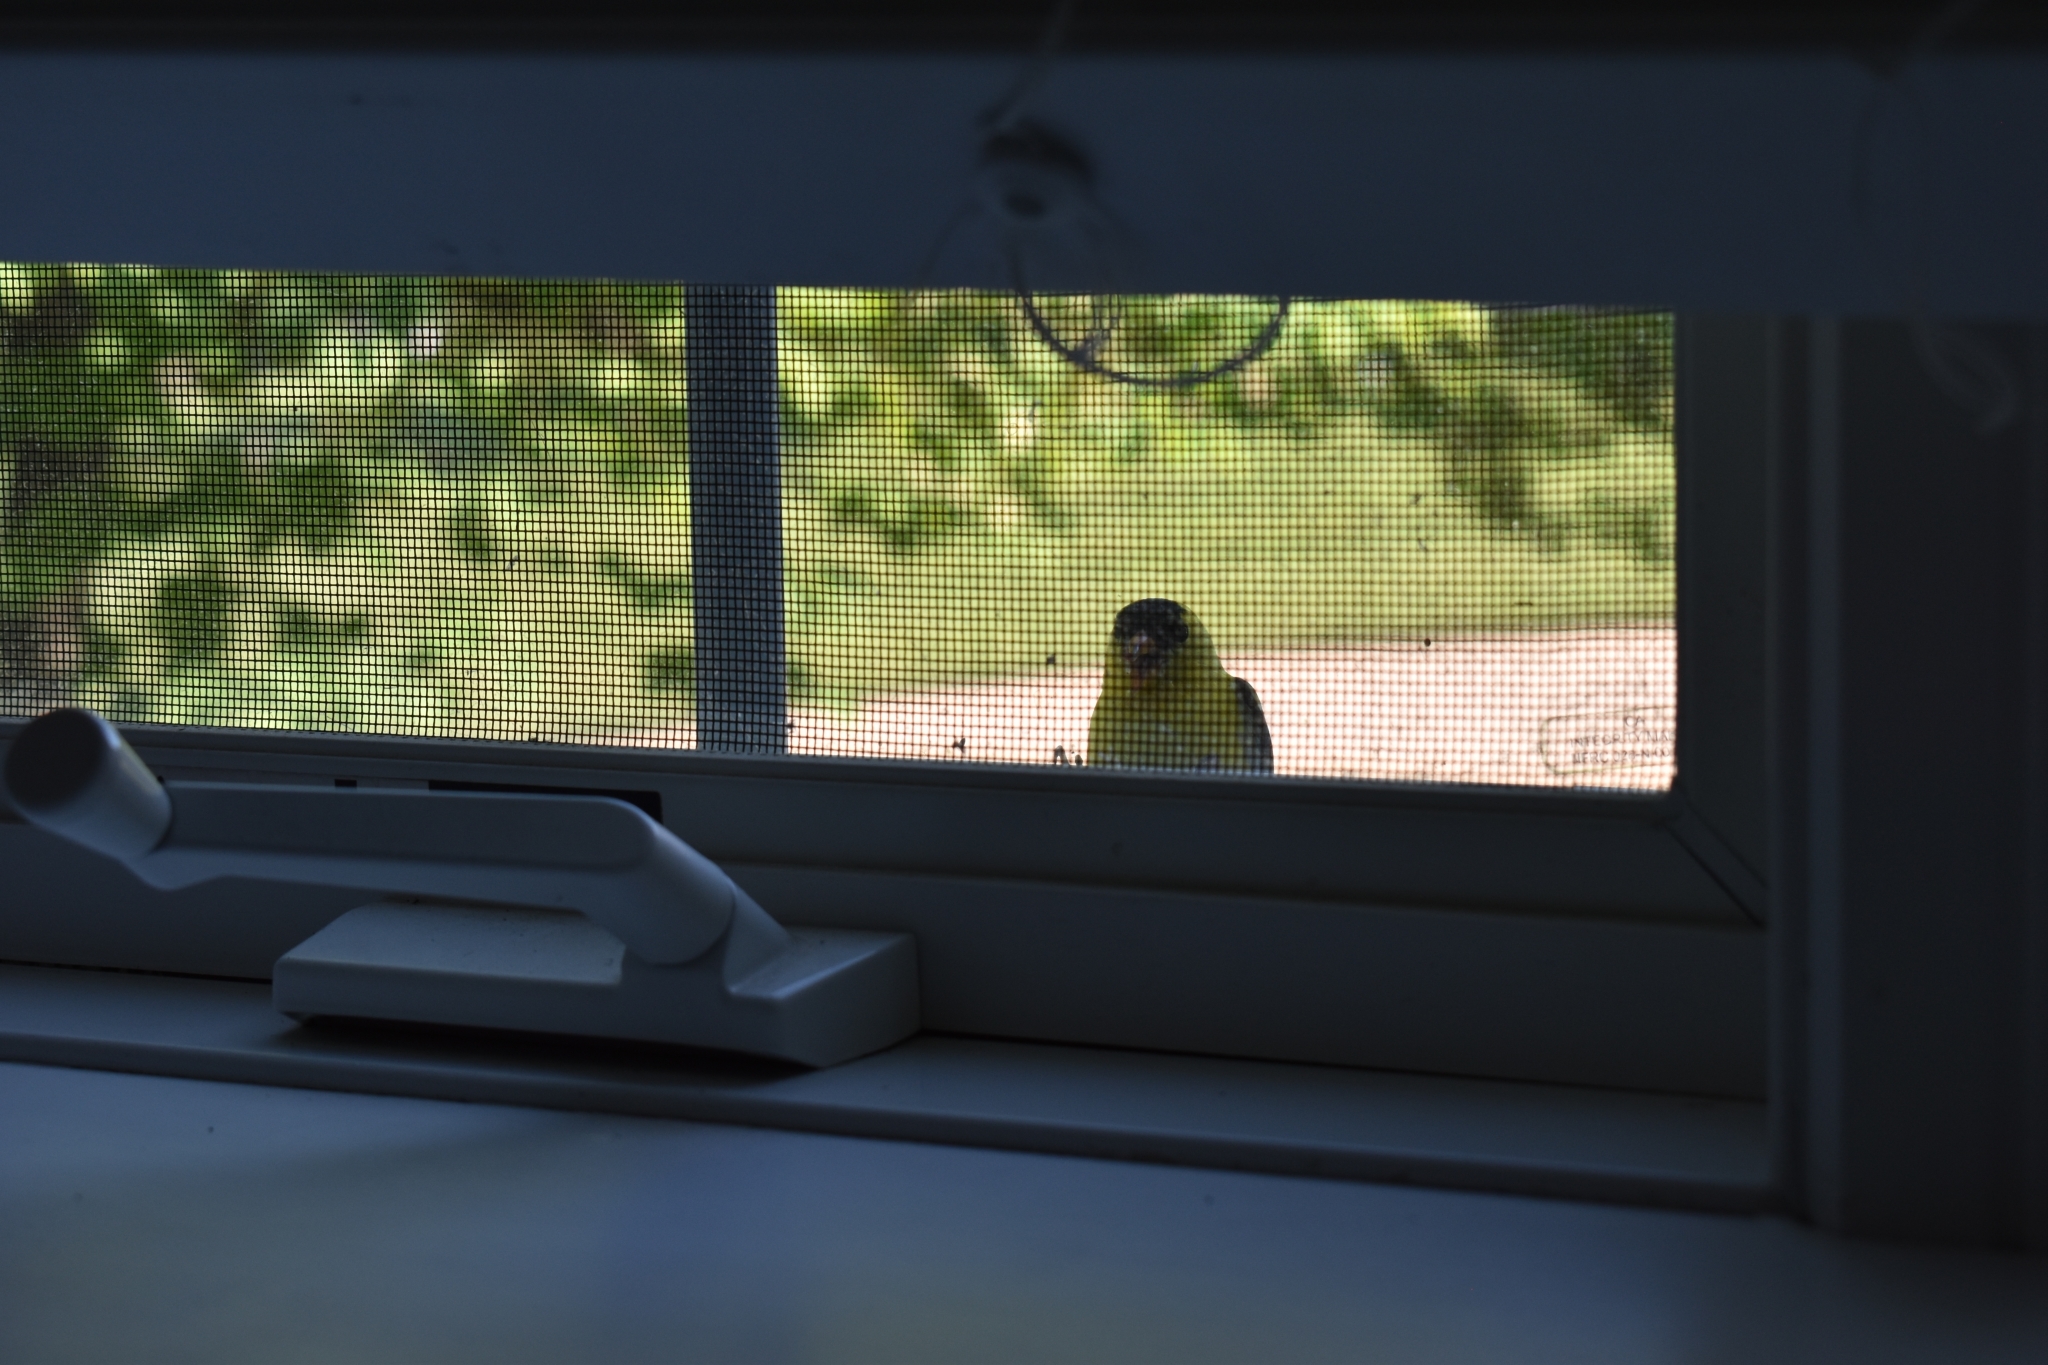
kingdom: Animalia
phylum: Chordata
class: Aves
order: Passeriformes
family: Fringillidae
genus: Spinus
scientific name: Spinus tristis
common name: American goldfinch
